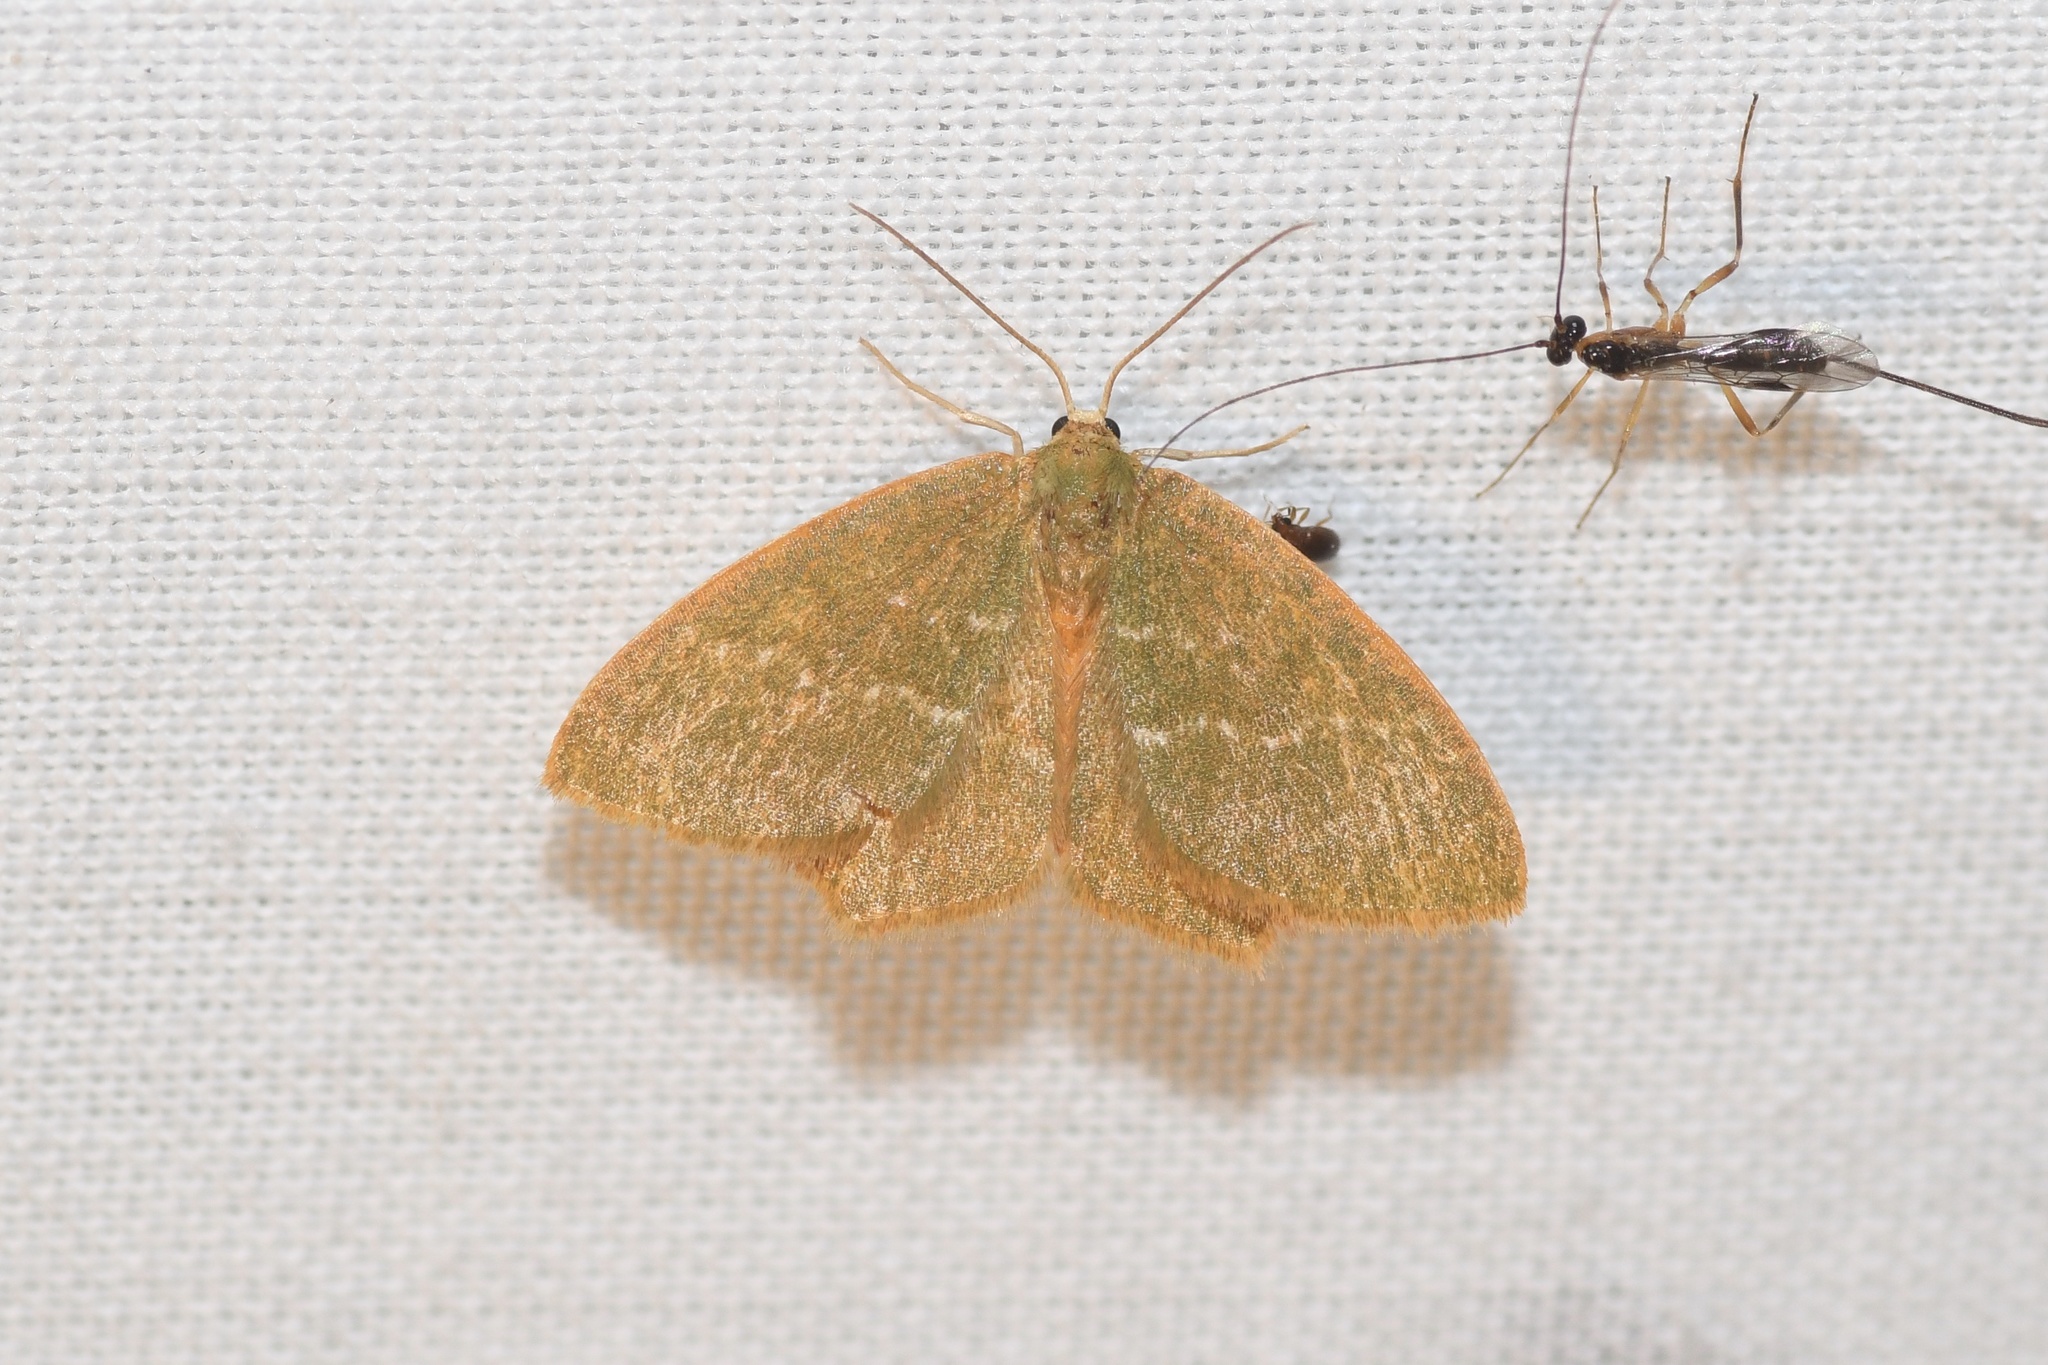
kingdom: Animalia
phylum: Arthropoda
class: Insecta
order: Lepidoptera
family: Geometridae
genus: Thalera
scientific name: Thalera pistasciaria
